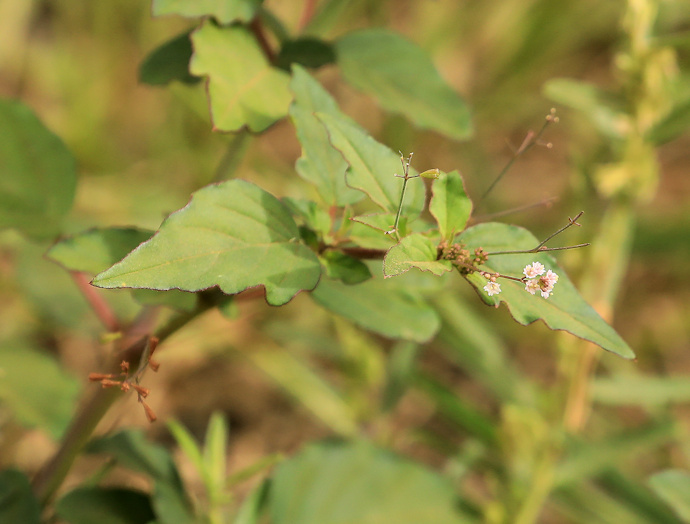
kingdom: Plantae
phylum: Tracheophyta
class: Magnoliopsida
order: Caryophyllales
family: Nyctaginaceae
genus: Boerhavia
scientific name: Boerhavia erecta
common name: Erect spiderling
